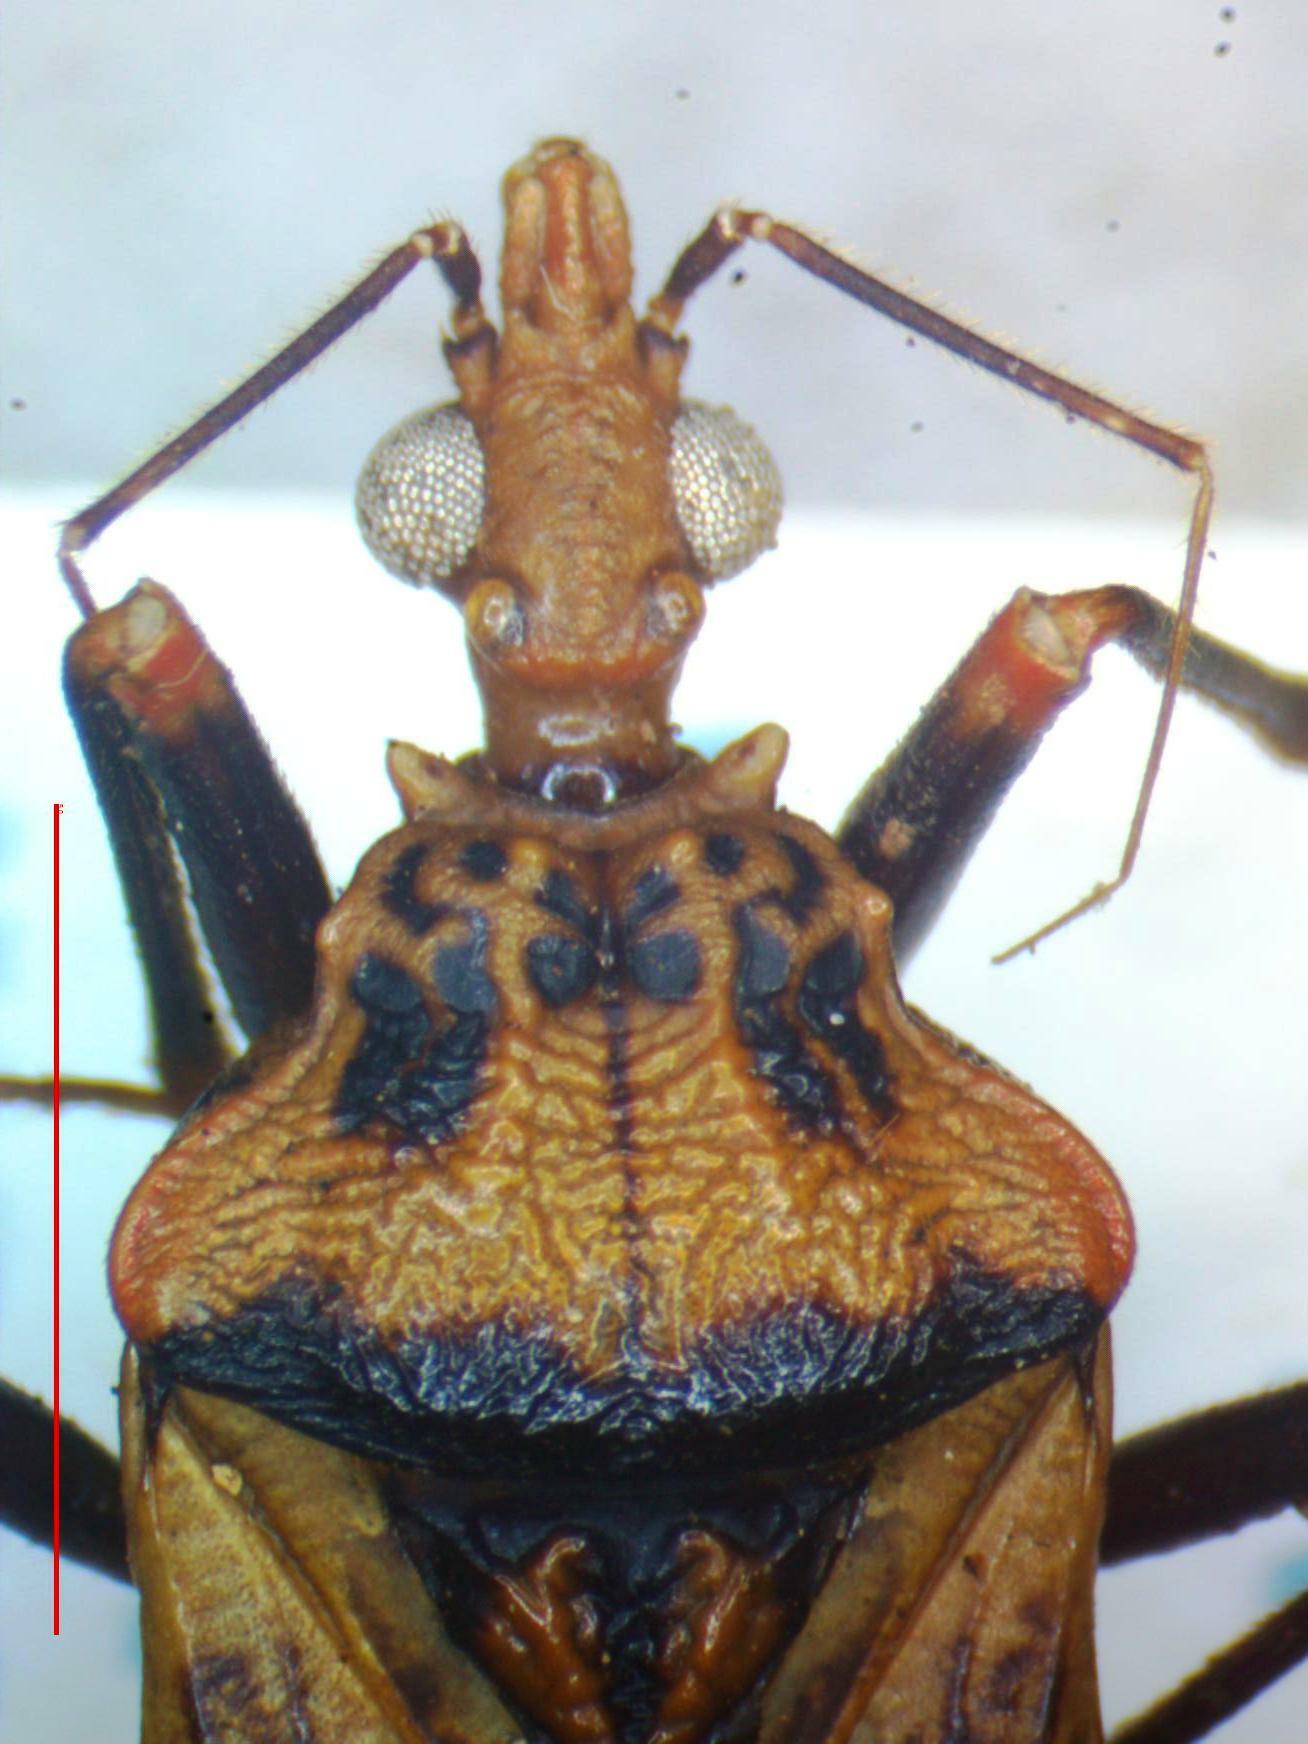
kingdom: Animalia
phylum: Arthropoda
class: Insecta
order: Hemiptera
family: Reduviidae
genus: Panstrongylus
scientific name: Panstrongylus geniculatus
